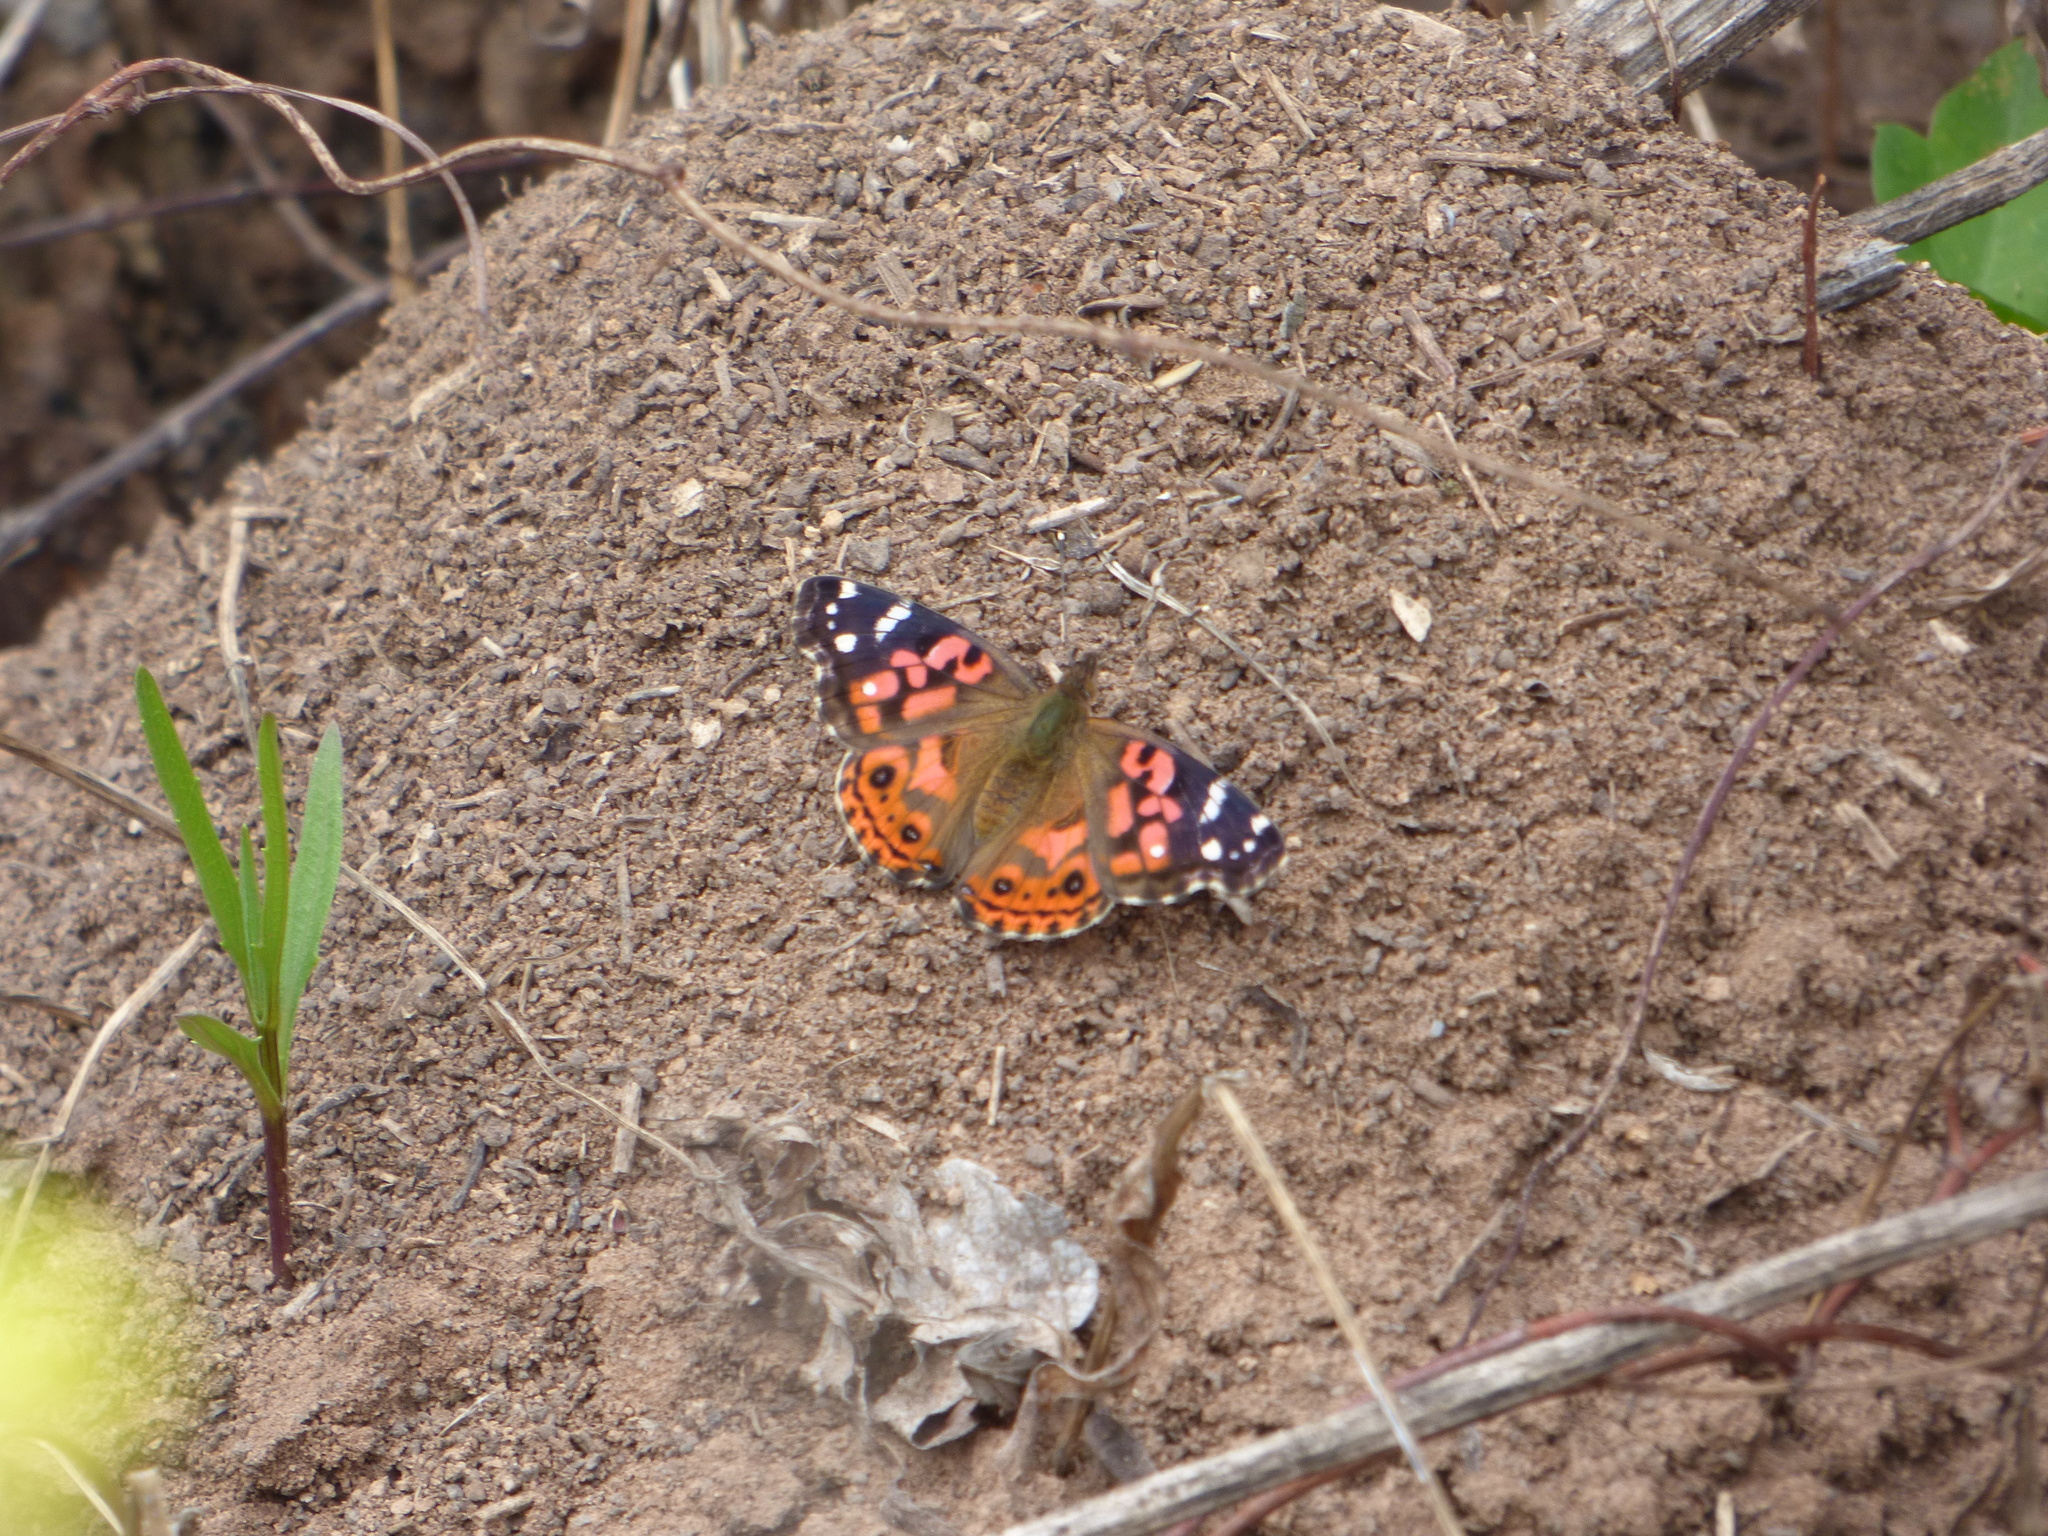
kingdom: Animalia
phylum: Arthropoda
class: Insecta
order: Lepidoptera
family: Nymphalidae
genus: Vanessa
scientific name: Vanessa braziliensis
